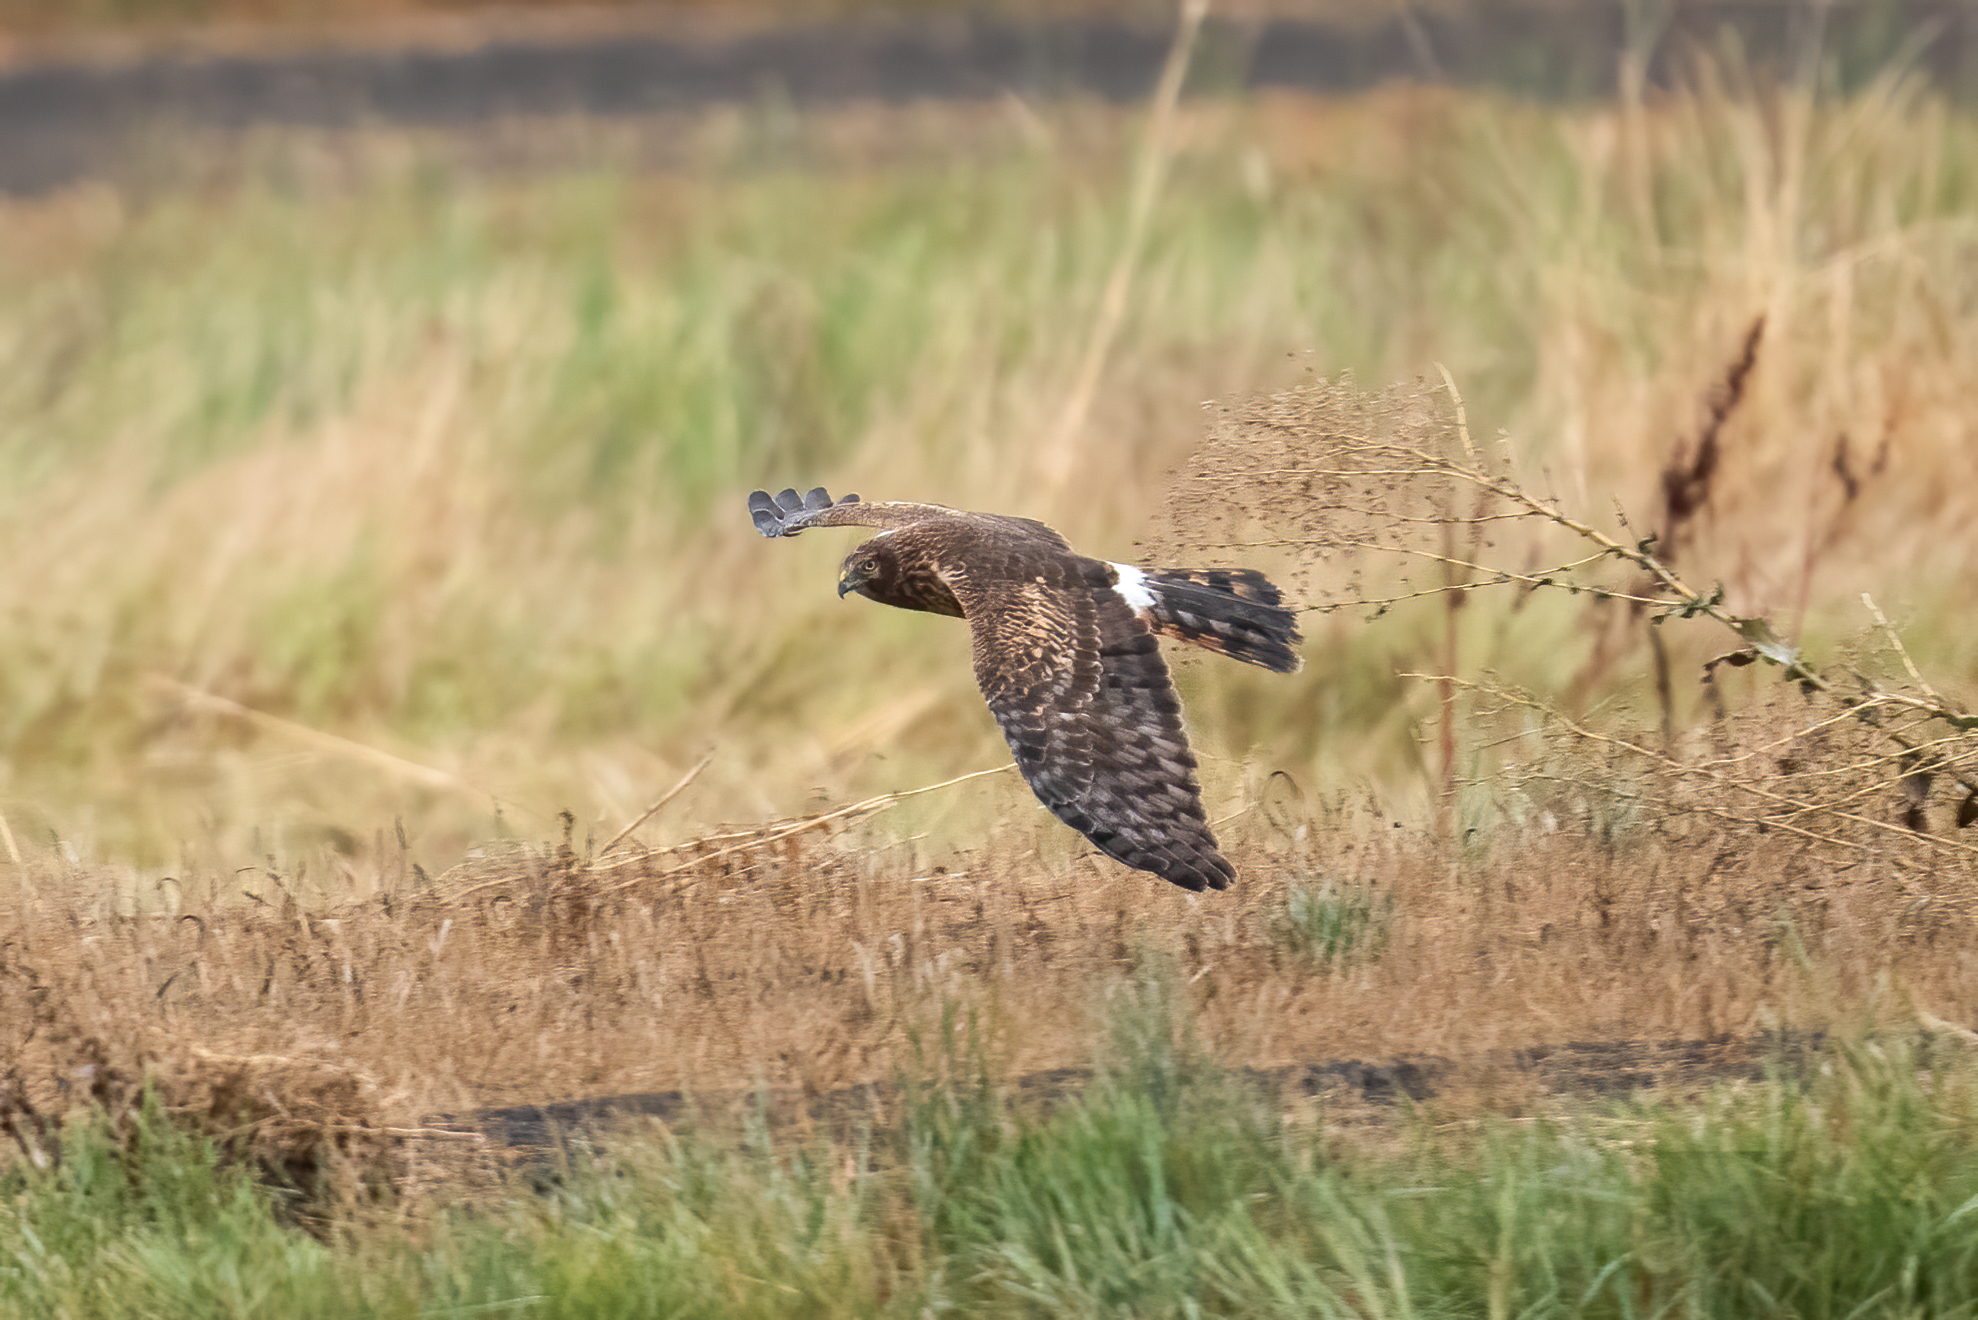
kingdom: Animalia
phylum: Chordata
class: Aves
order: Accipitriformes
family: Accipitridae
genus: Circus
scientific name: Circus cyaneus
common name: Hen harrier
